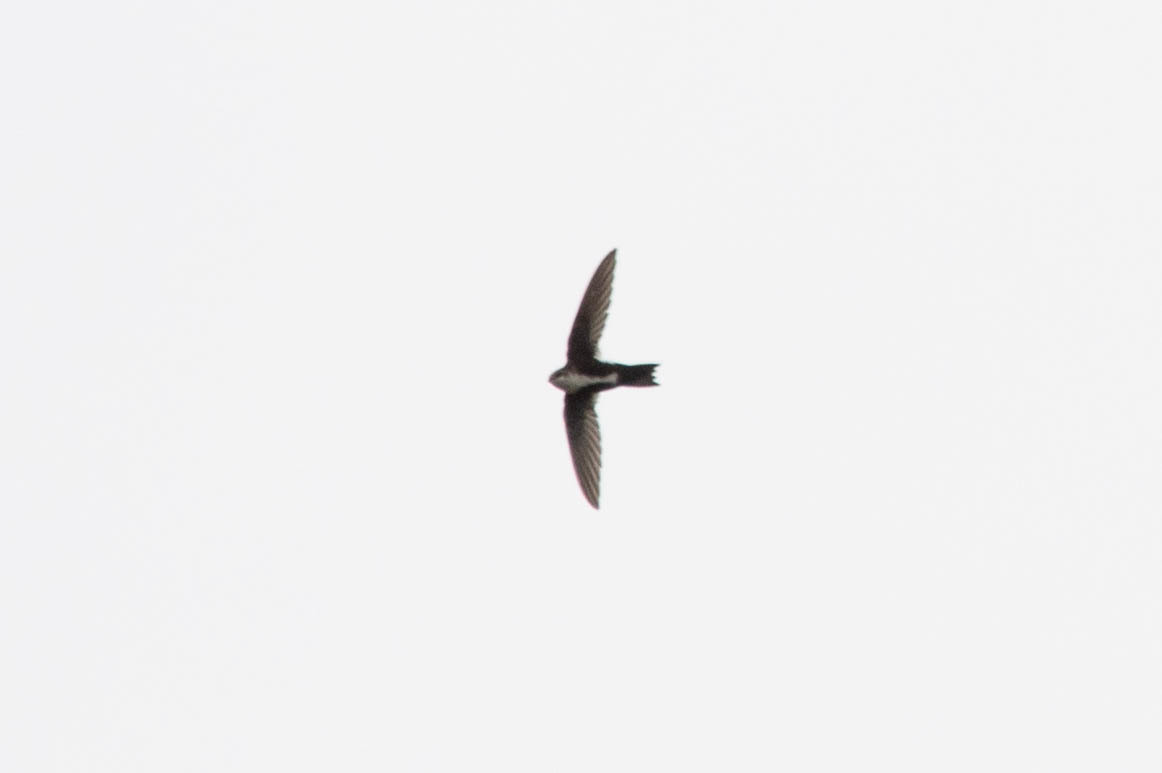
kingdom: Animalia
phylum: Chordata
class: Aves
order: Apodiformes
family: Apodidae
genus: Aeronautes
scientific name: Aeronautes saxatalis
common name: White-throated swift
